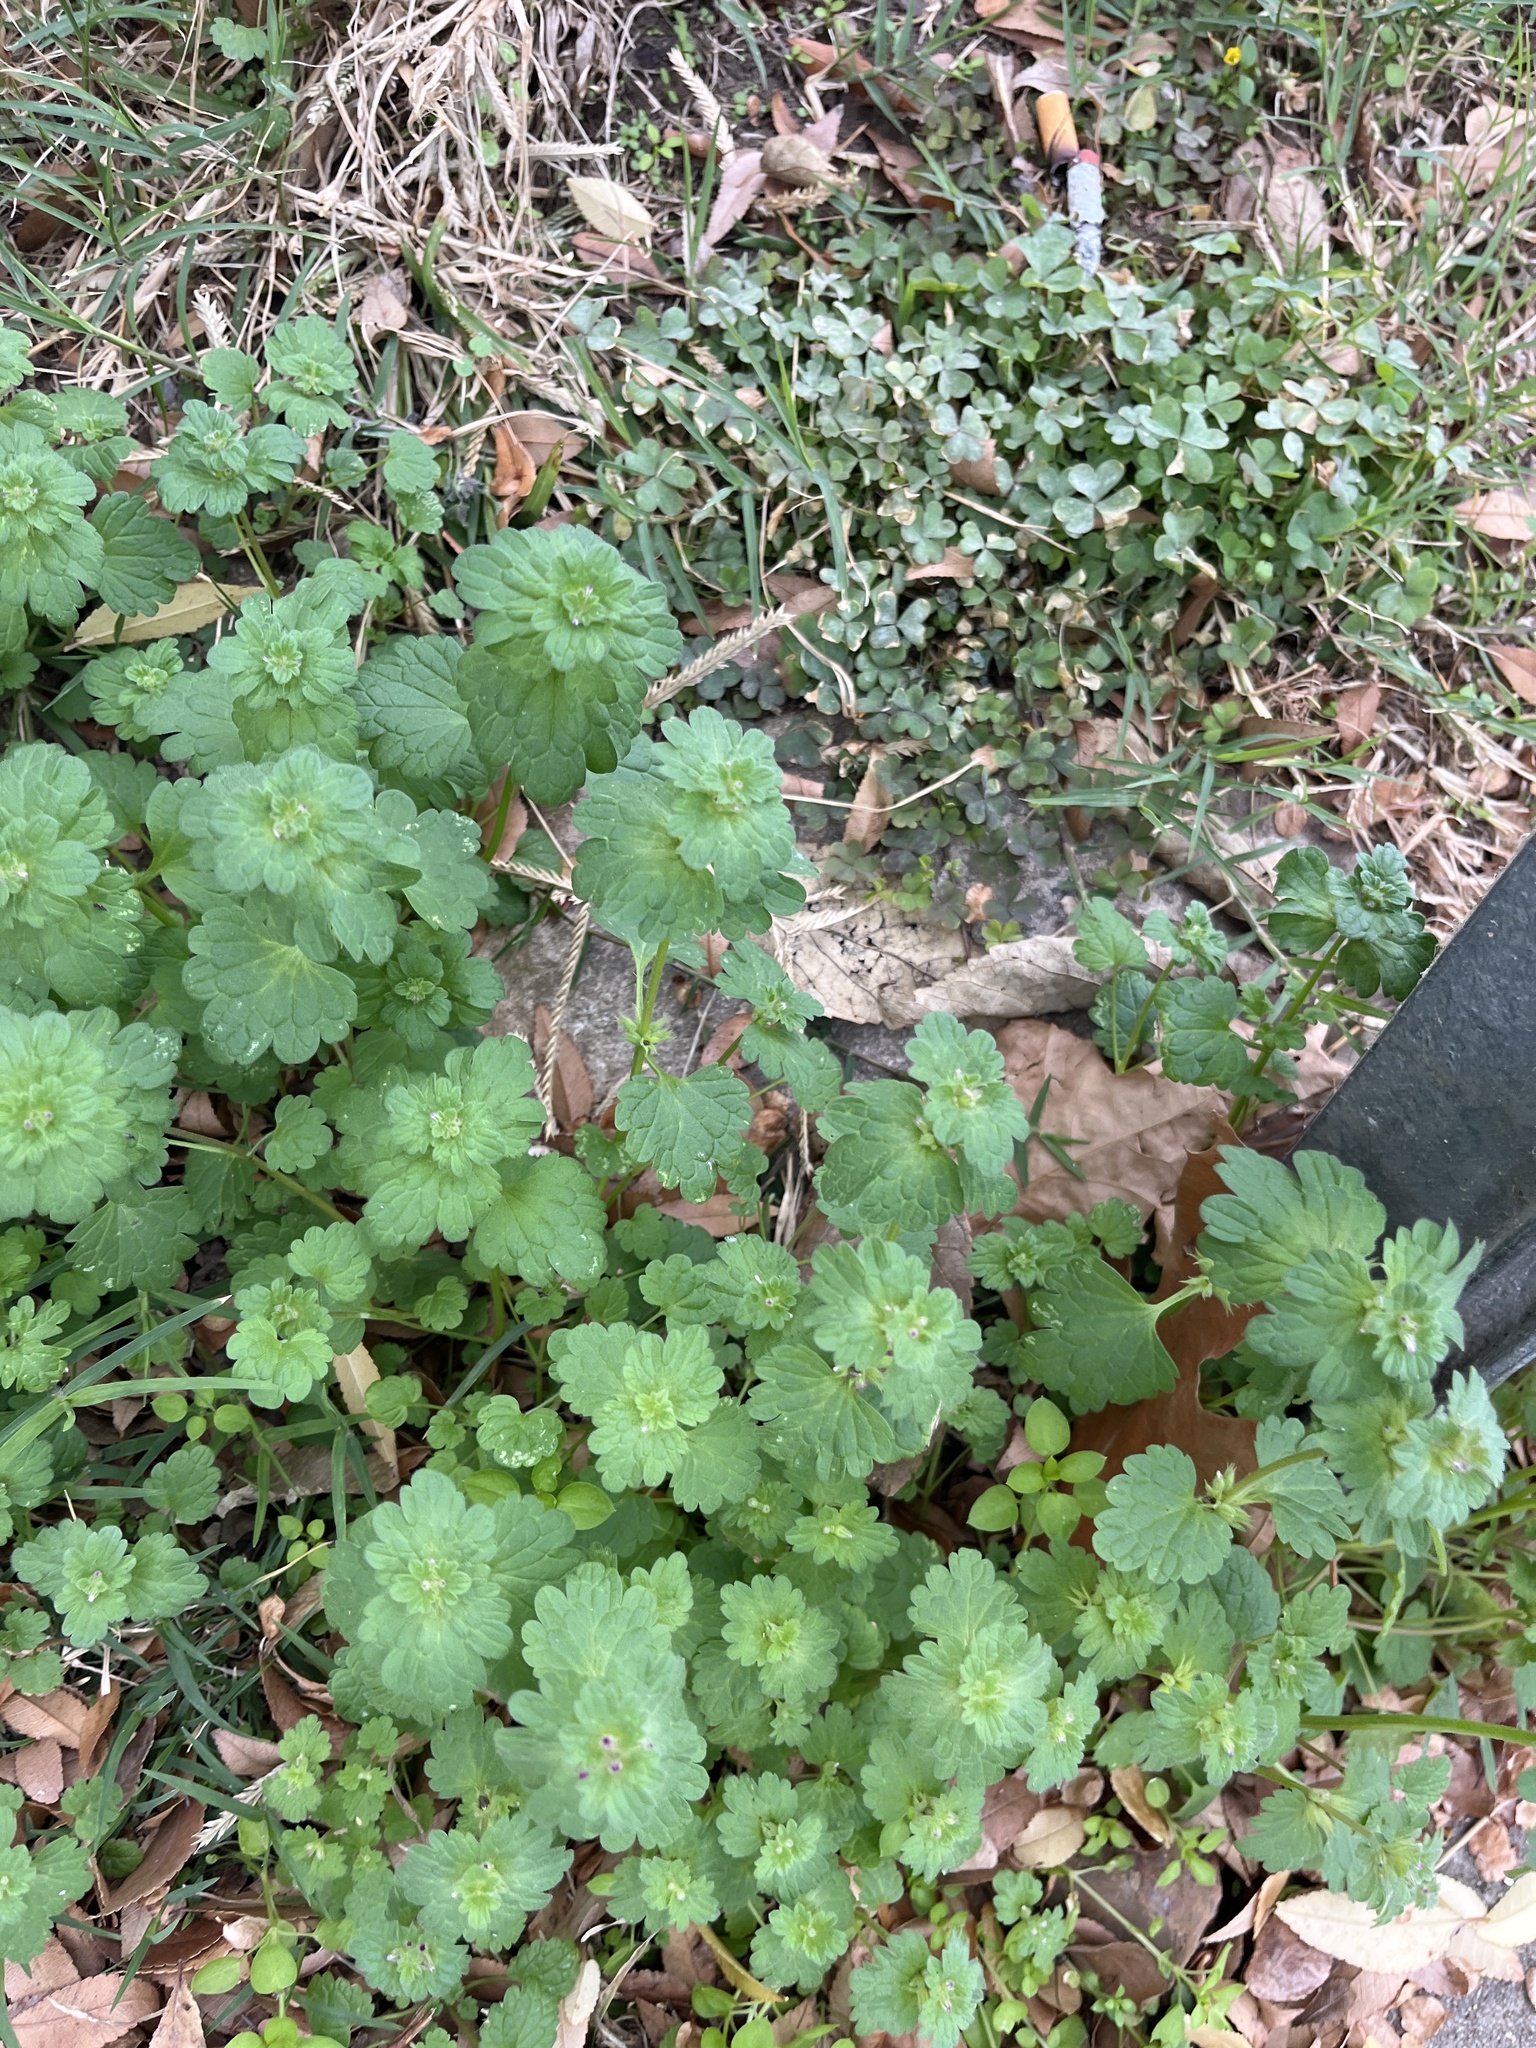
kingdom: Plantae
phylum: Tracheophyta
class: Magnoliopsida
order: Lamiales
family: Lamiaceae
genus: Lamium
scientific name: Lamium amplexicaule
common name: Henbit dead-nettle
